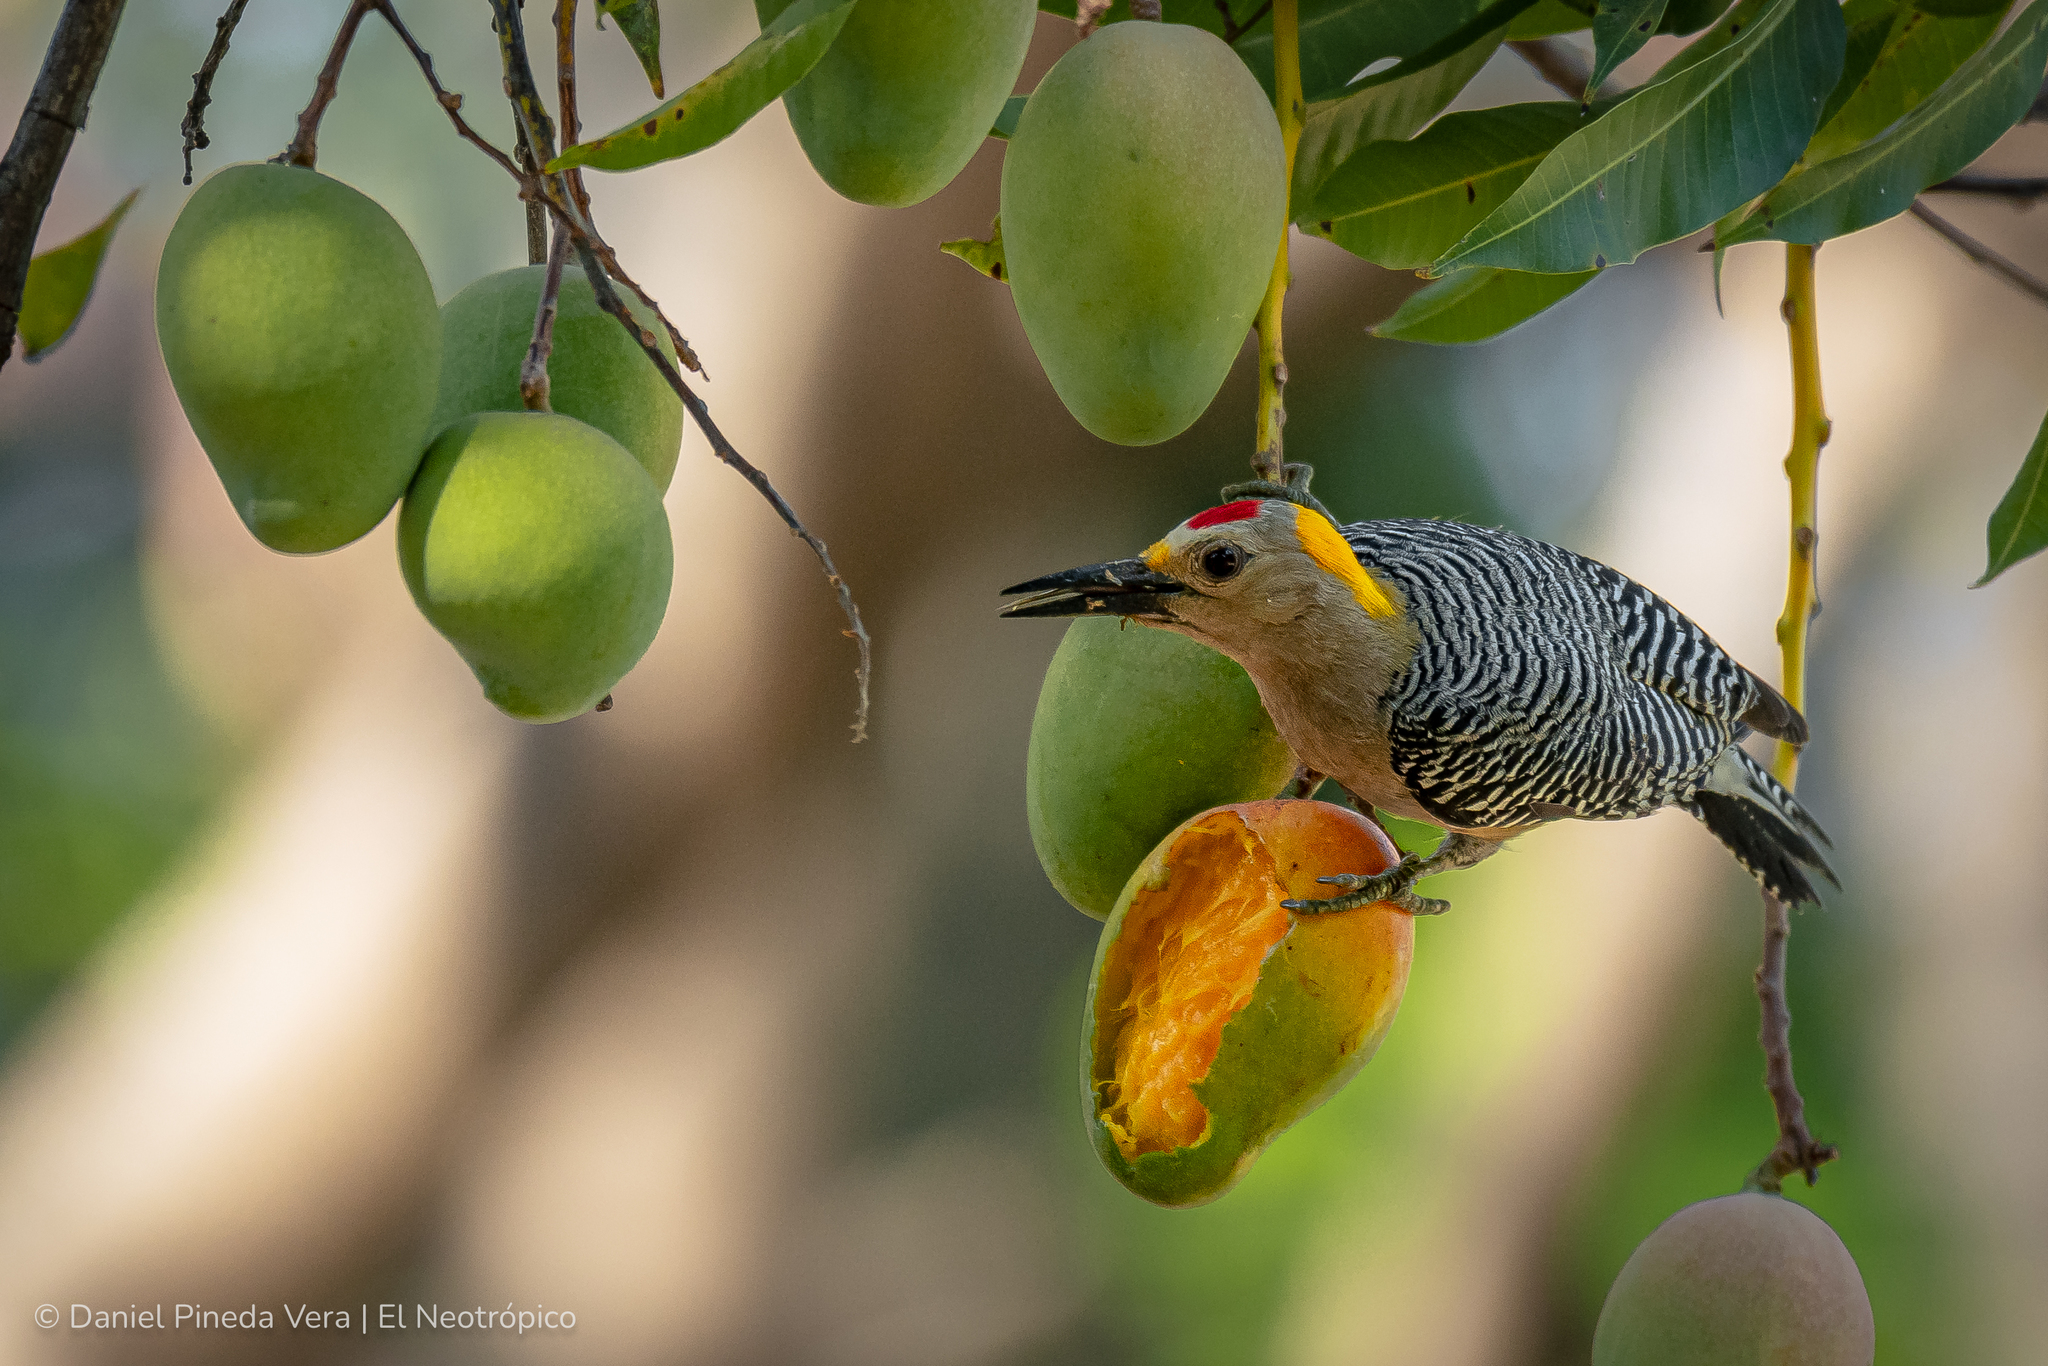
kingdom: Animalia
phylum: Chordata
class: Aves
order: Piciformes
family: Picidae
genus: Melanerpes
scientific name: Melanerpes aurifrons
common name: Golden-fronted woodpecker
